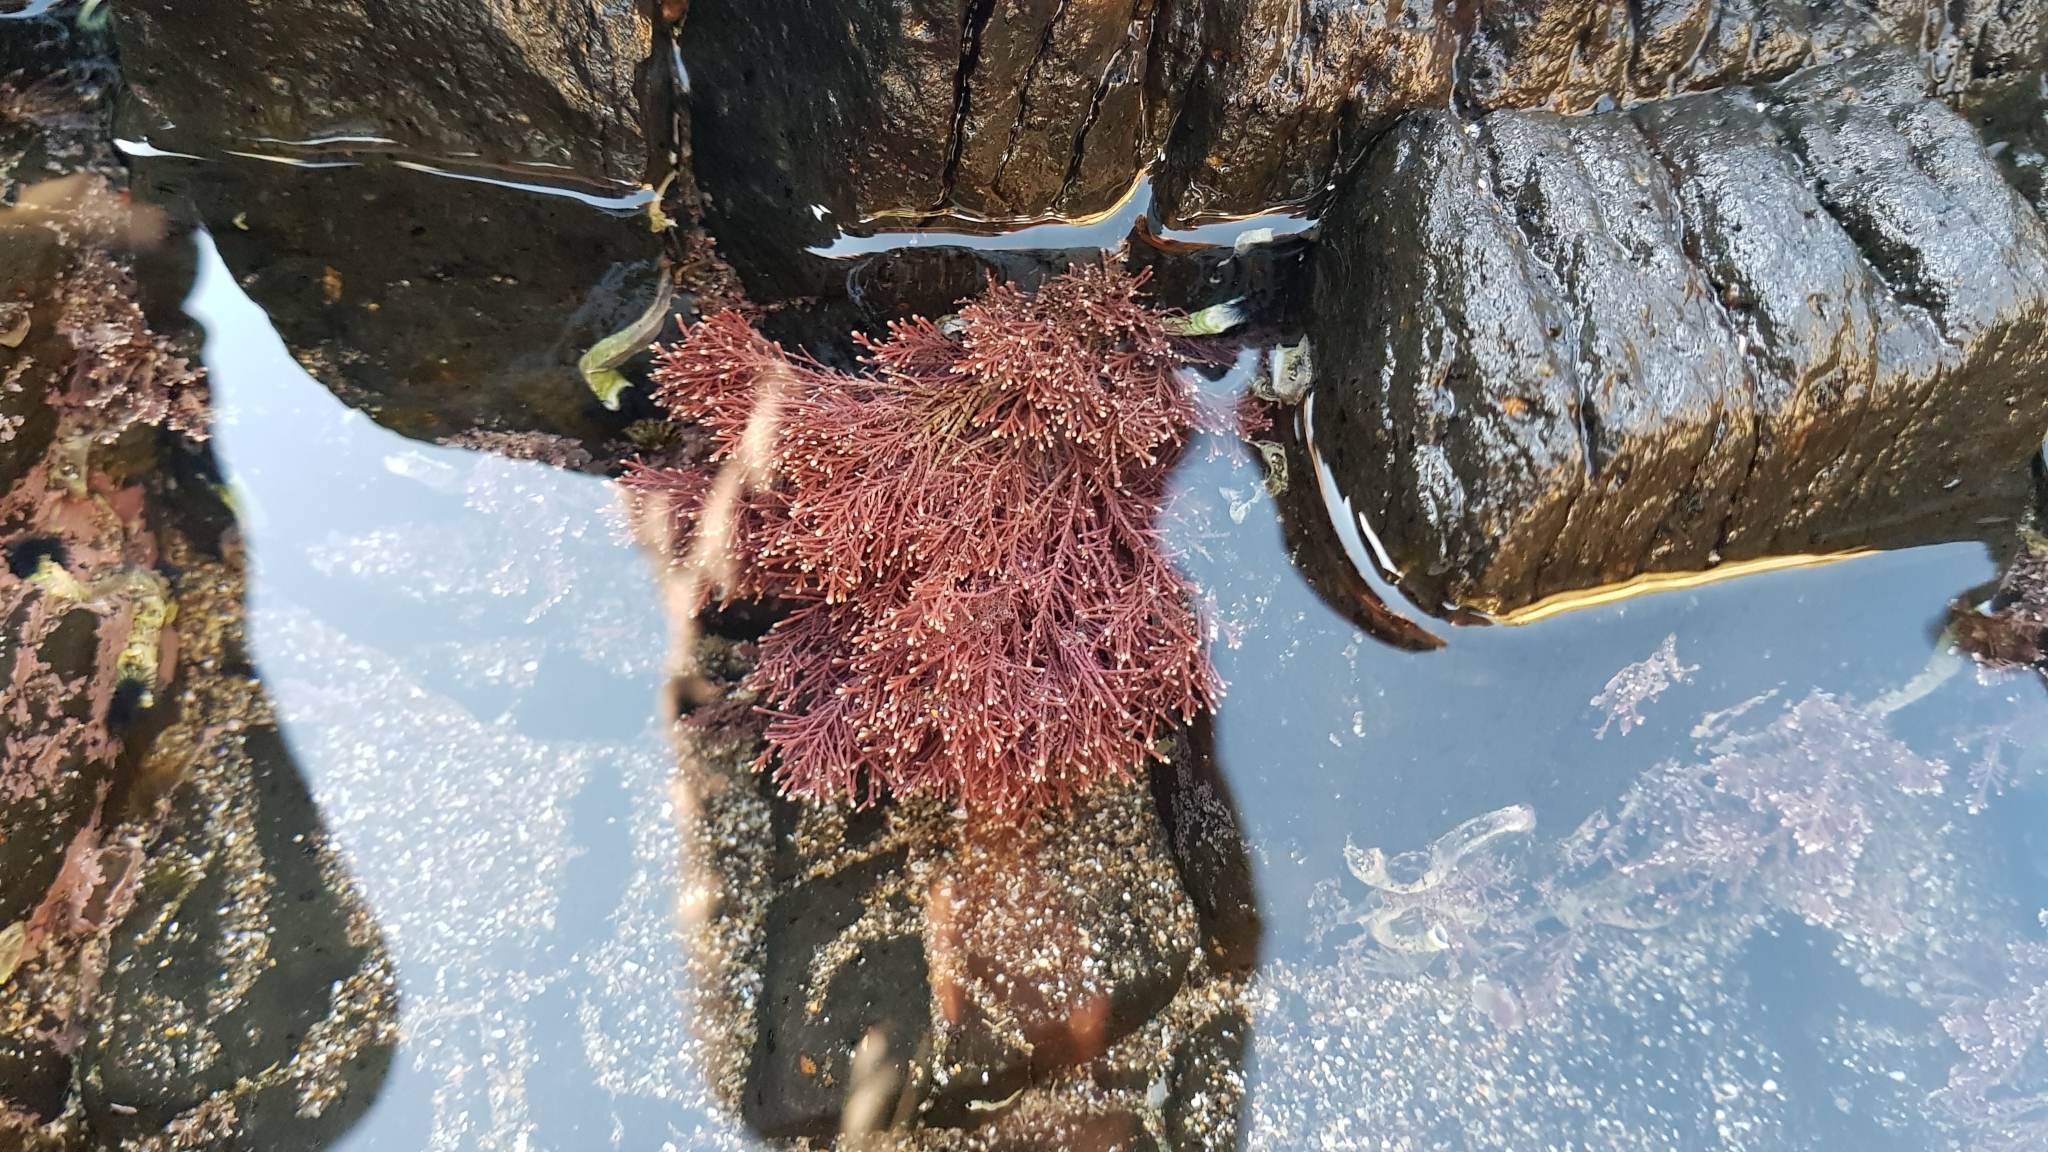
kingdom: Plantae
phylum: Rhodophyta
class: Florideophyceae
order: Corallinales
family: Corallinaceae
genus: Corallina
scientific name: Corallina officinalis
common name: Coral weed
